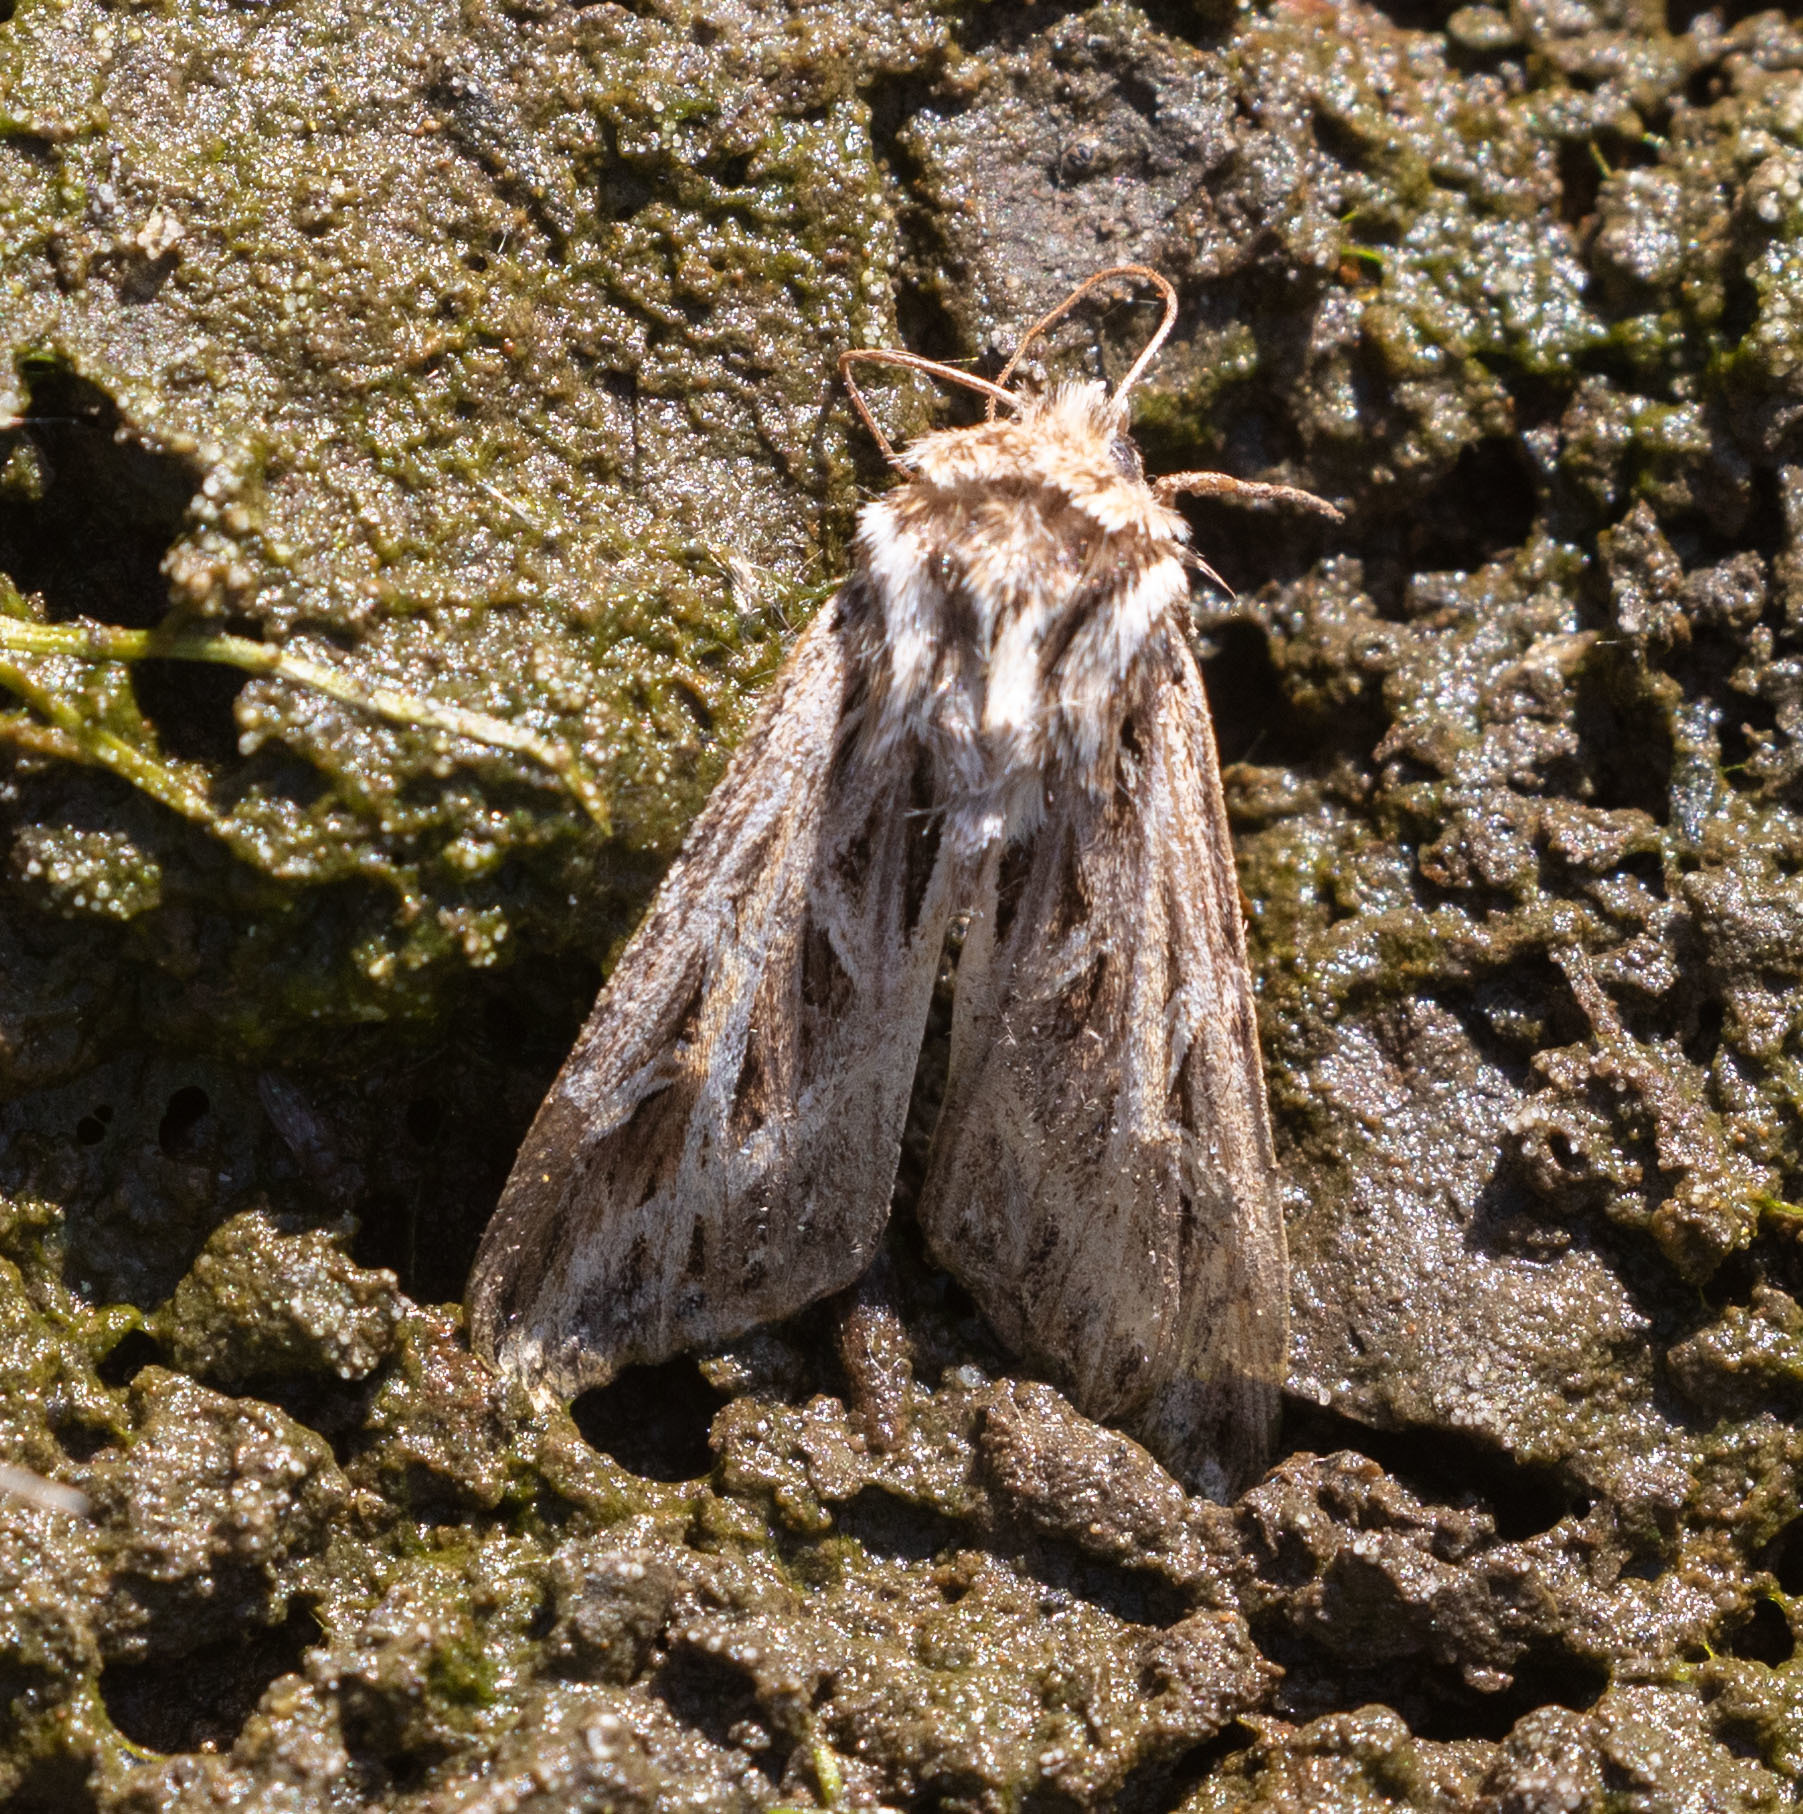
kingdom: Animalia
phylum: Arthropoda
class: Insecta
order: Lepidoptera
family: Noctuidae
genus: Dargida
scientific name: Dargida procinctus
